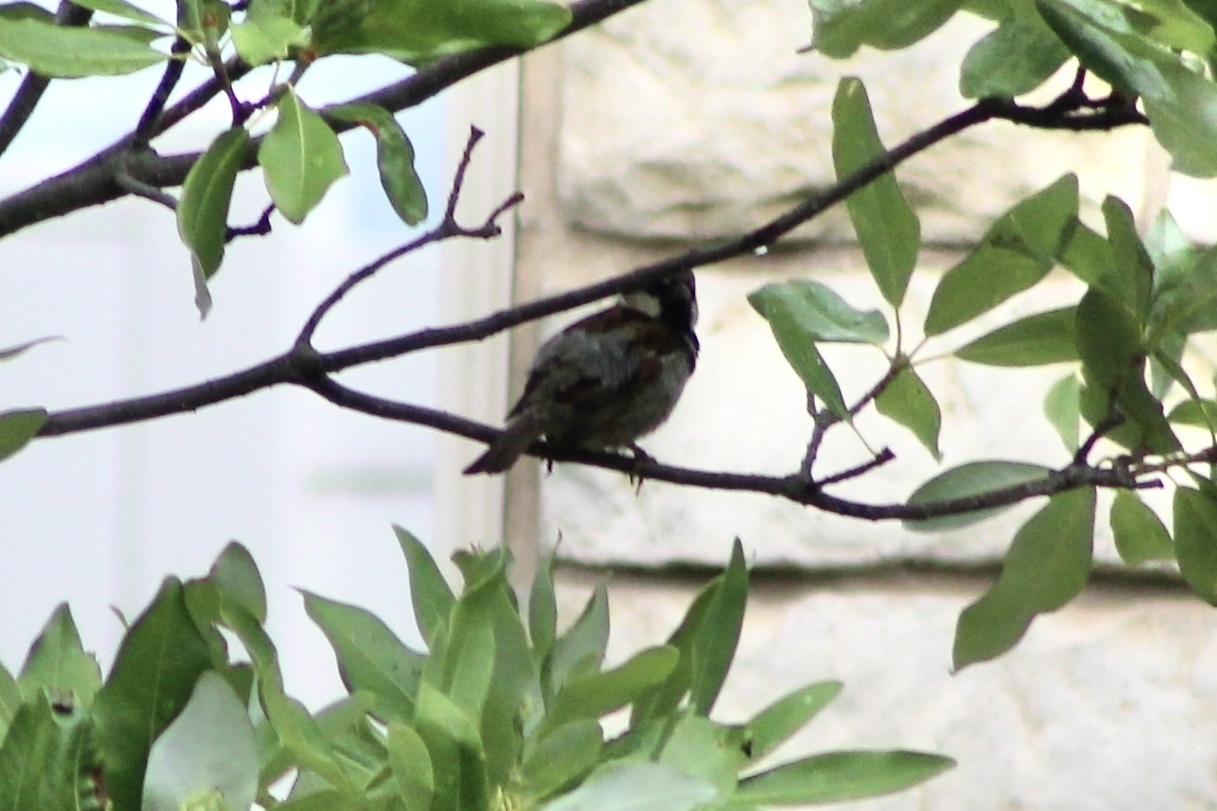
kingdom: Animalia
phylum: Chordata
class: Aves
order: Passeriformes
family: Passeridae
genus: Passer
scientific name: Passer domesticus
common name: House sparrow
